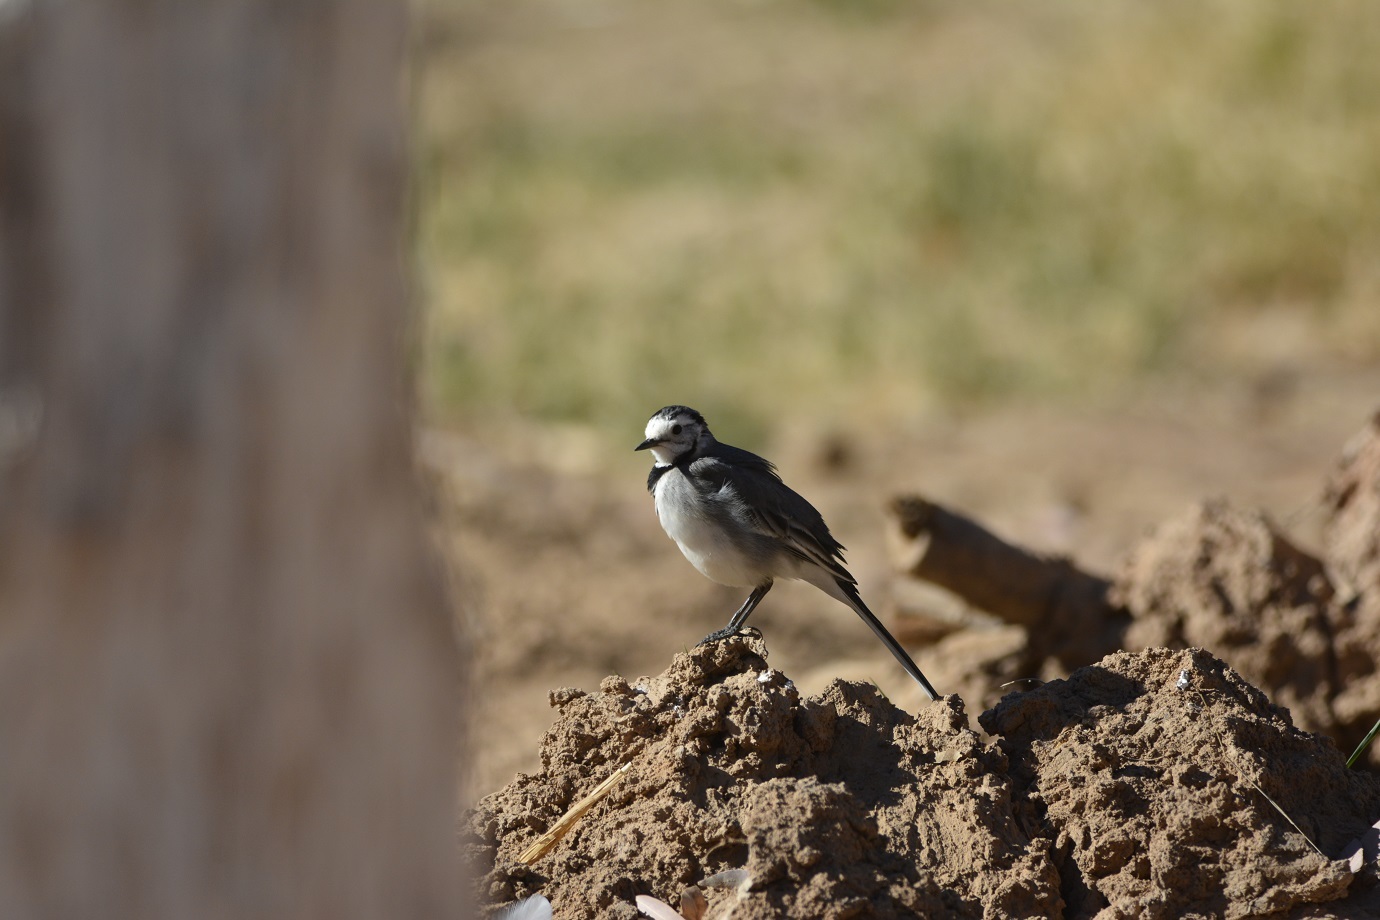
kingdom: Animalia
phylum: Chordata
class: Aves
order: Passeriformes
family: Motacillidae
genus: Motacilla
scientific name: Motacilla alba
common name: White wagtail
